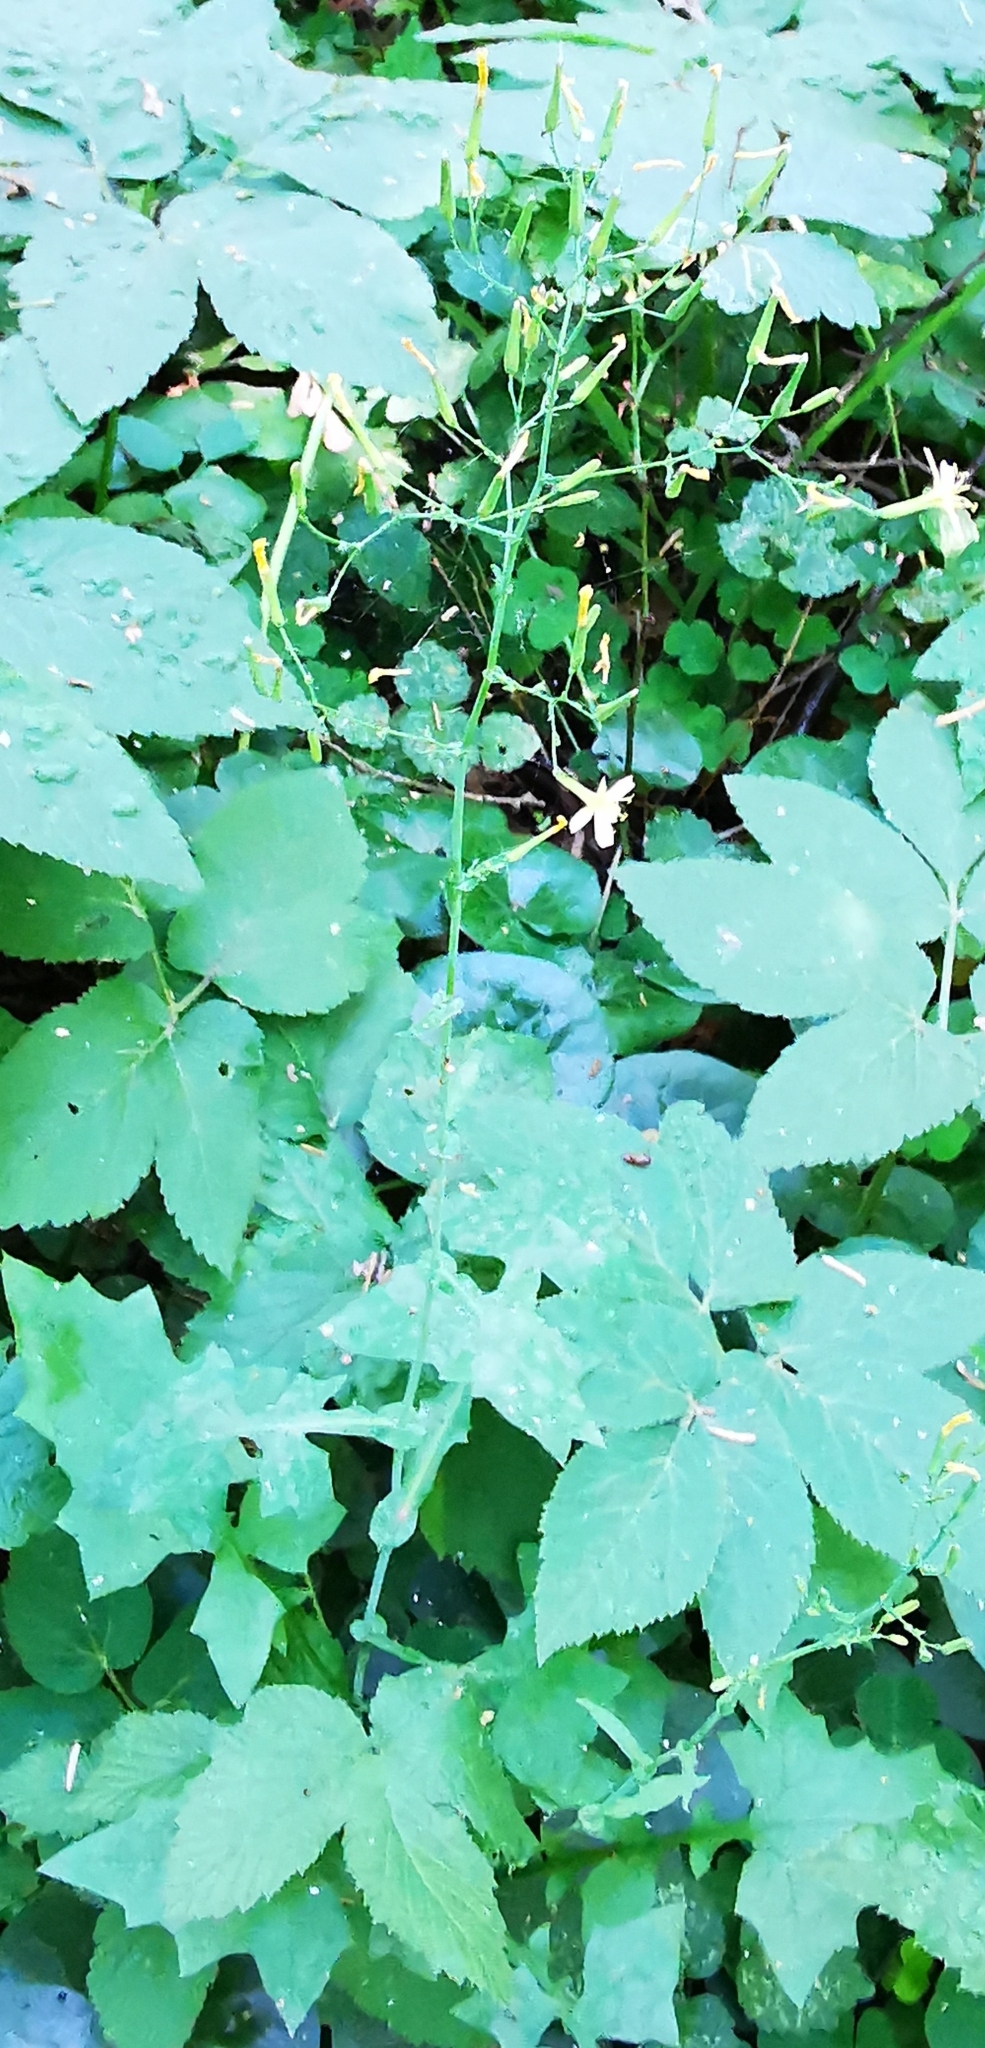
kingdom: Plantae
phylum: Tracheophyta
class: Magnoliopsida
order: Asterales
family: Asteraceae
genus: Mycelis
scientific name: Mycelis muralis
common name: Wall lettuce
